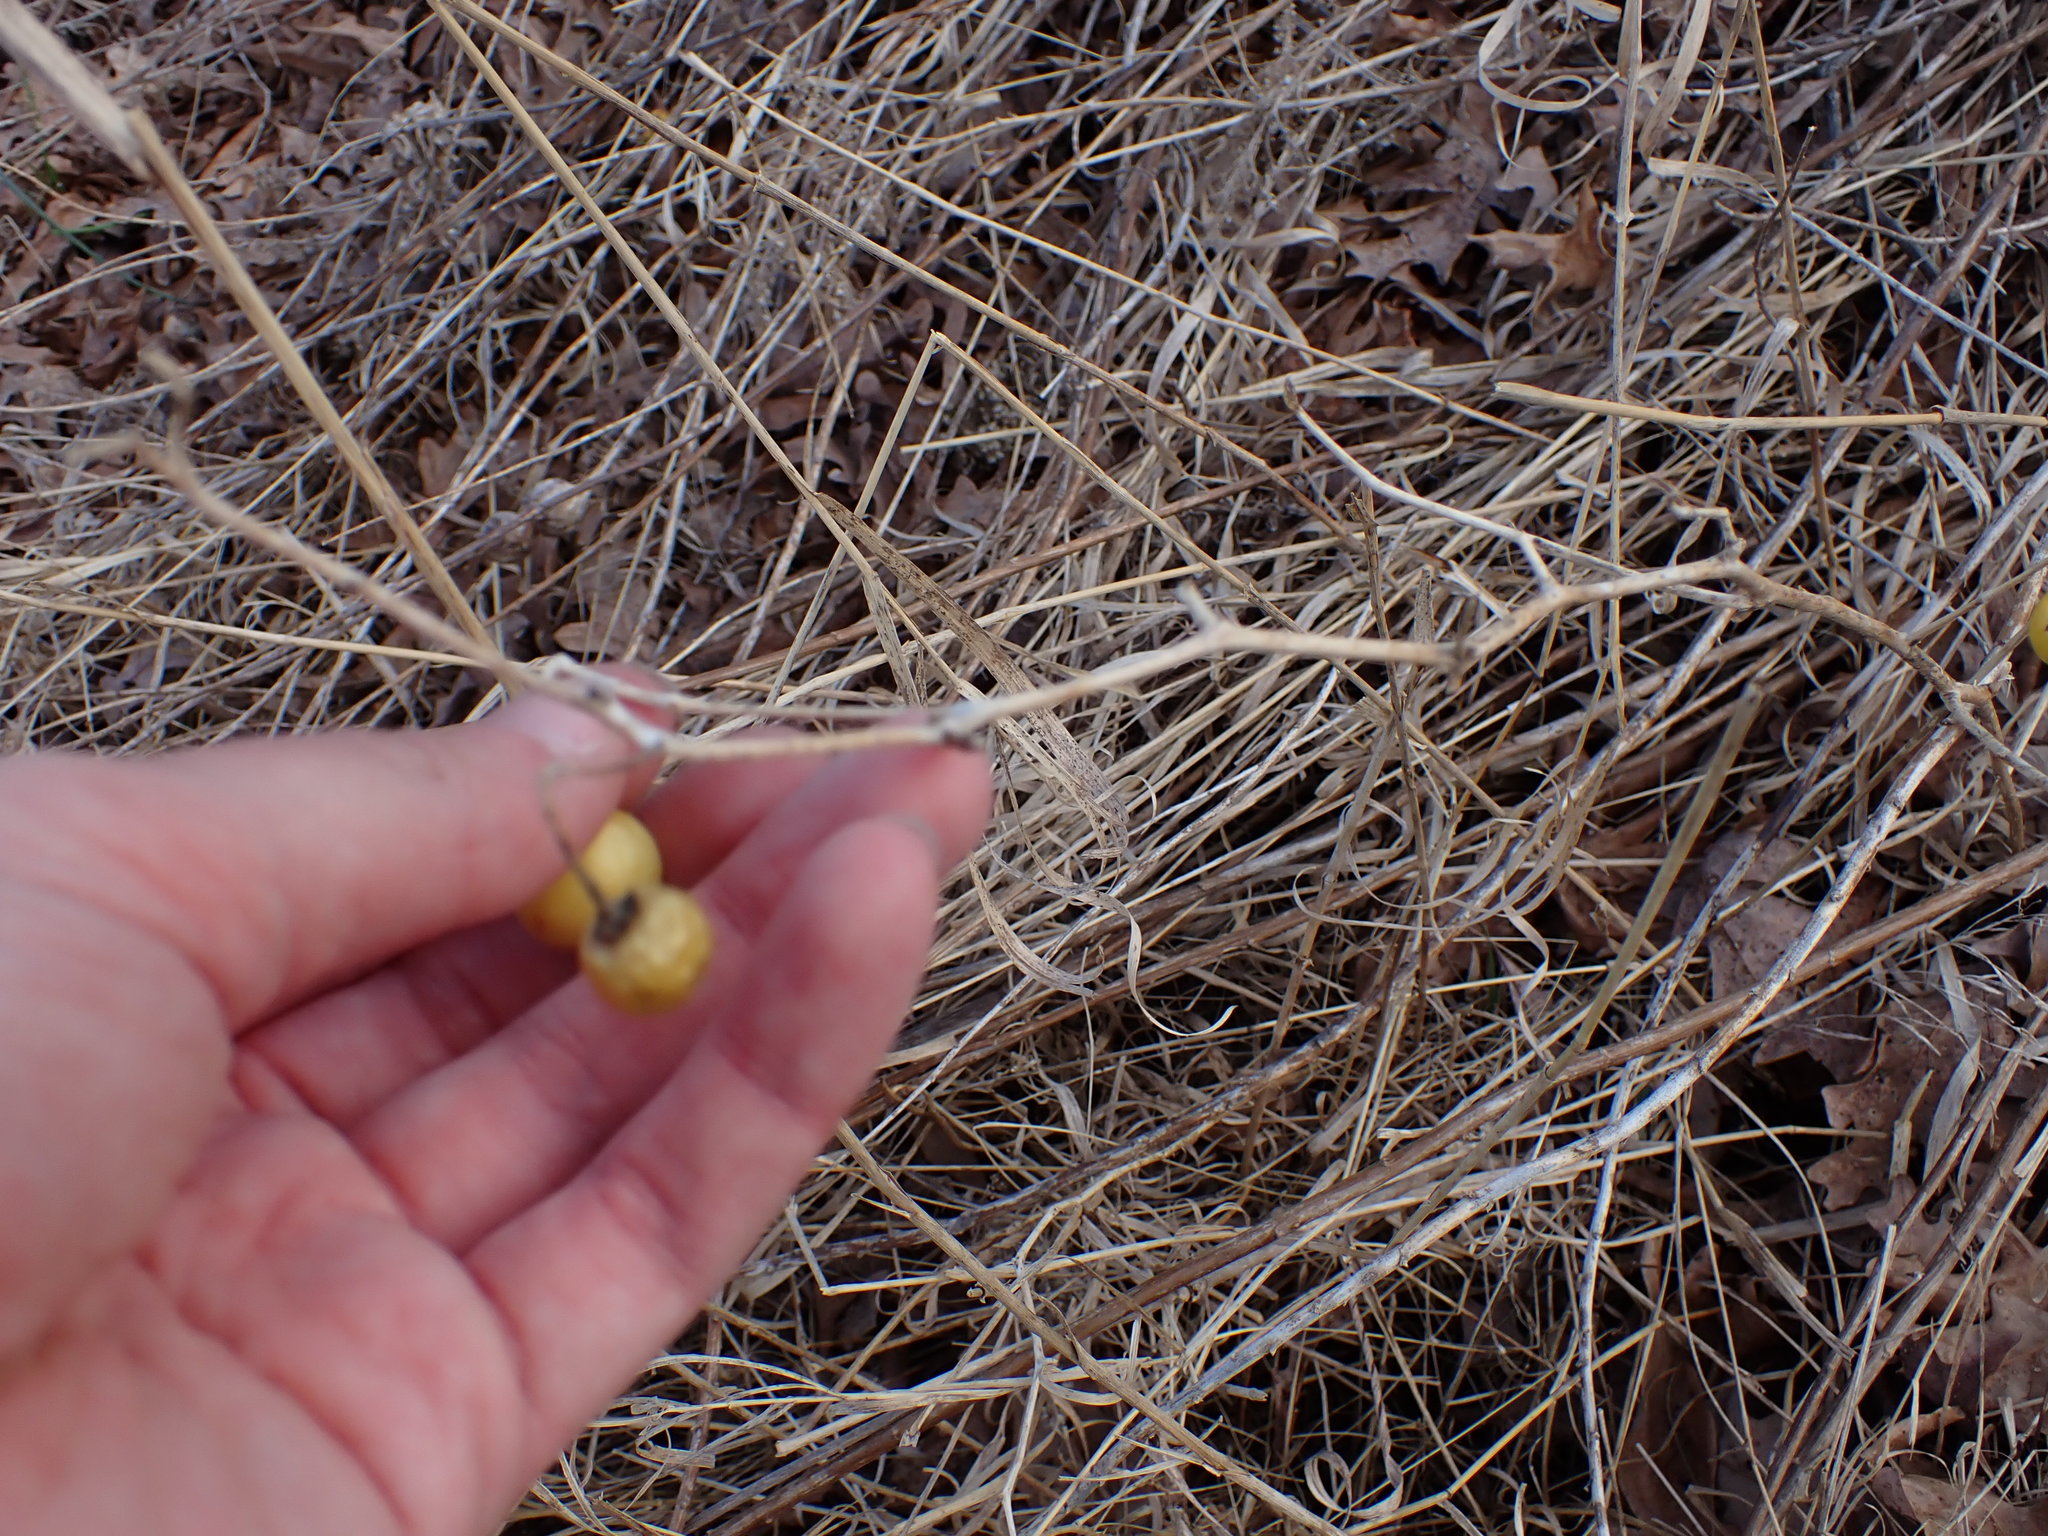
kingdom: Plantae
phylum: Tracheophyta
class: Magnoliopsida
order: Solanales
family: Solanaceae
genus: Solanum
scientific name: Solanum carolinense
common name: Horse-nettle
